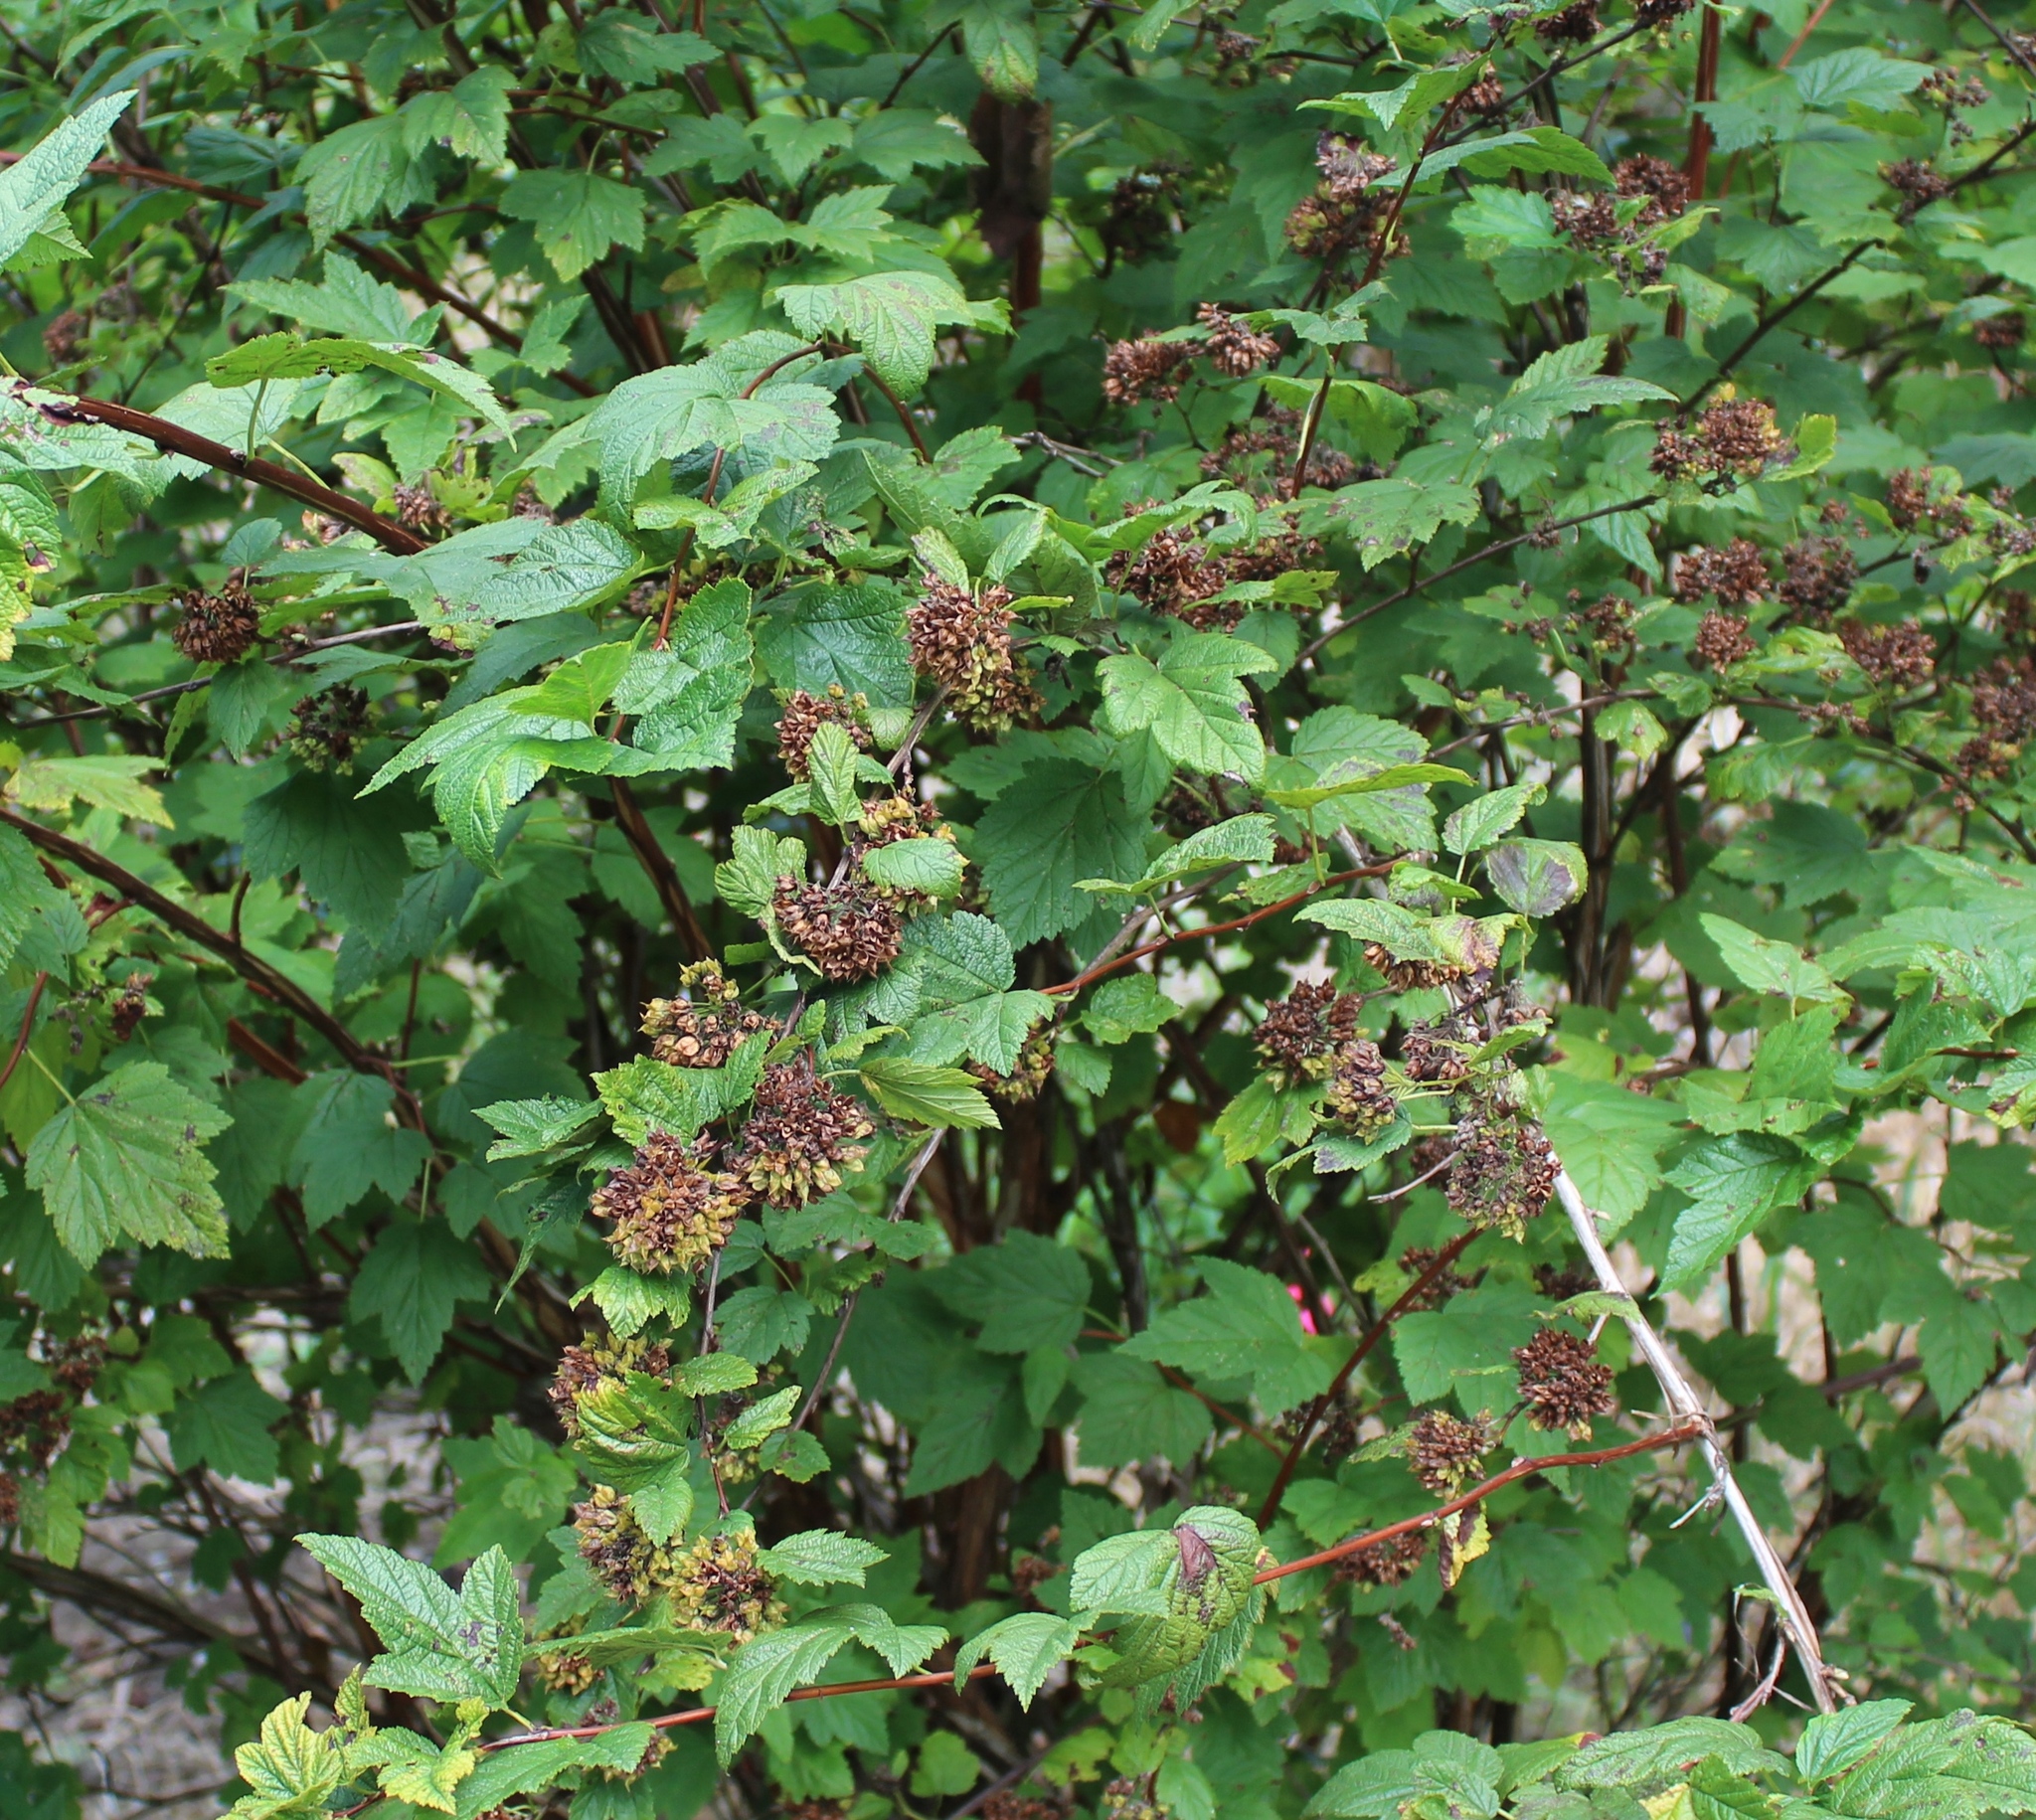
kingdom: Plantae
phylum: Tracheophyta
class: Magnoliopsida
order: Rosales
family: Rosaceae
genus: Physocarpus
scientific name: Physocarpus capitatus
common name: Pacific ninebark
